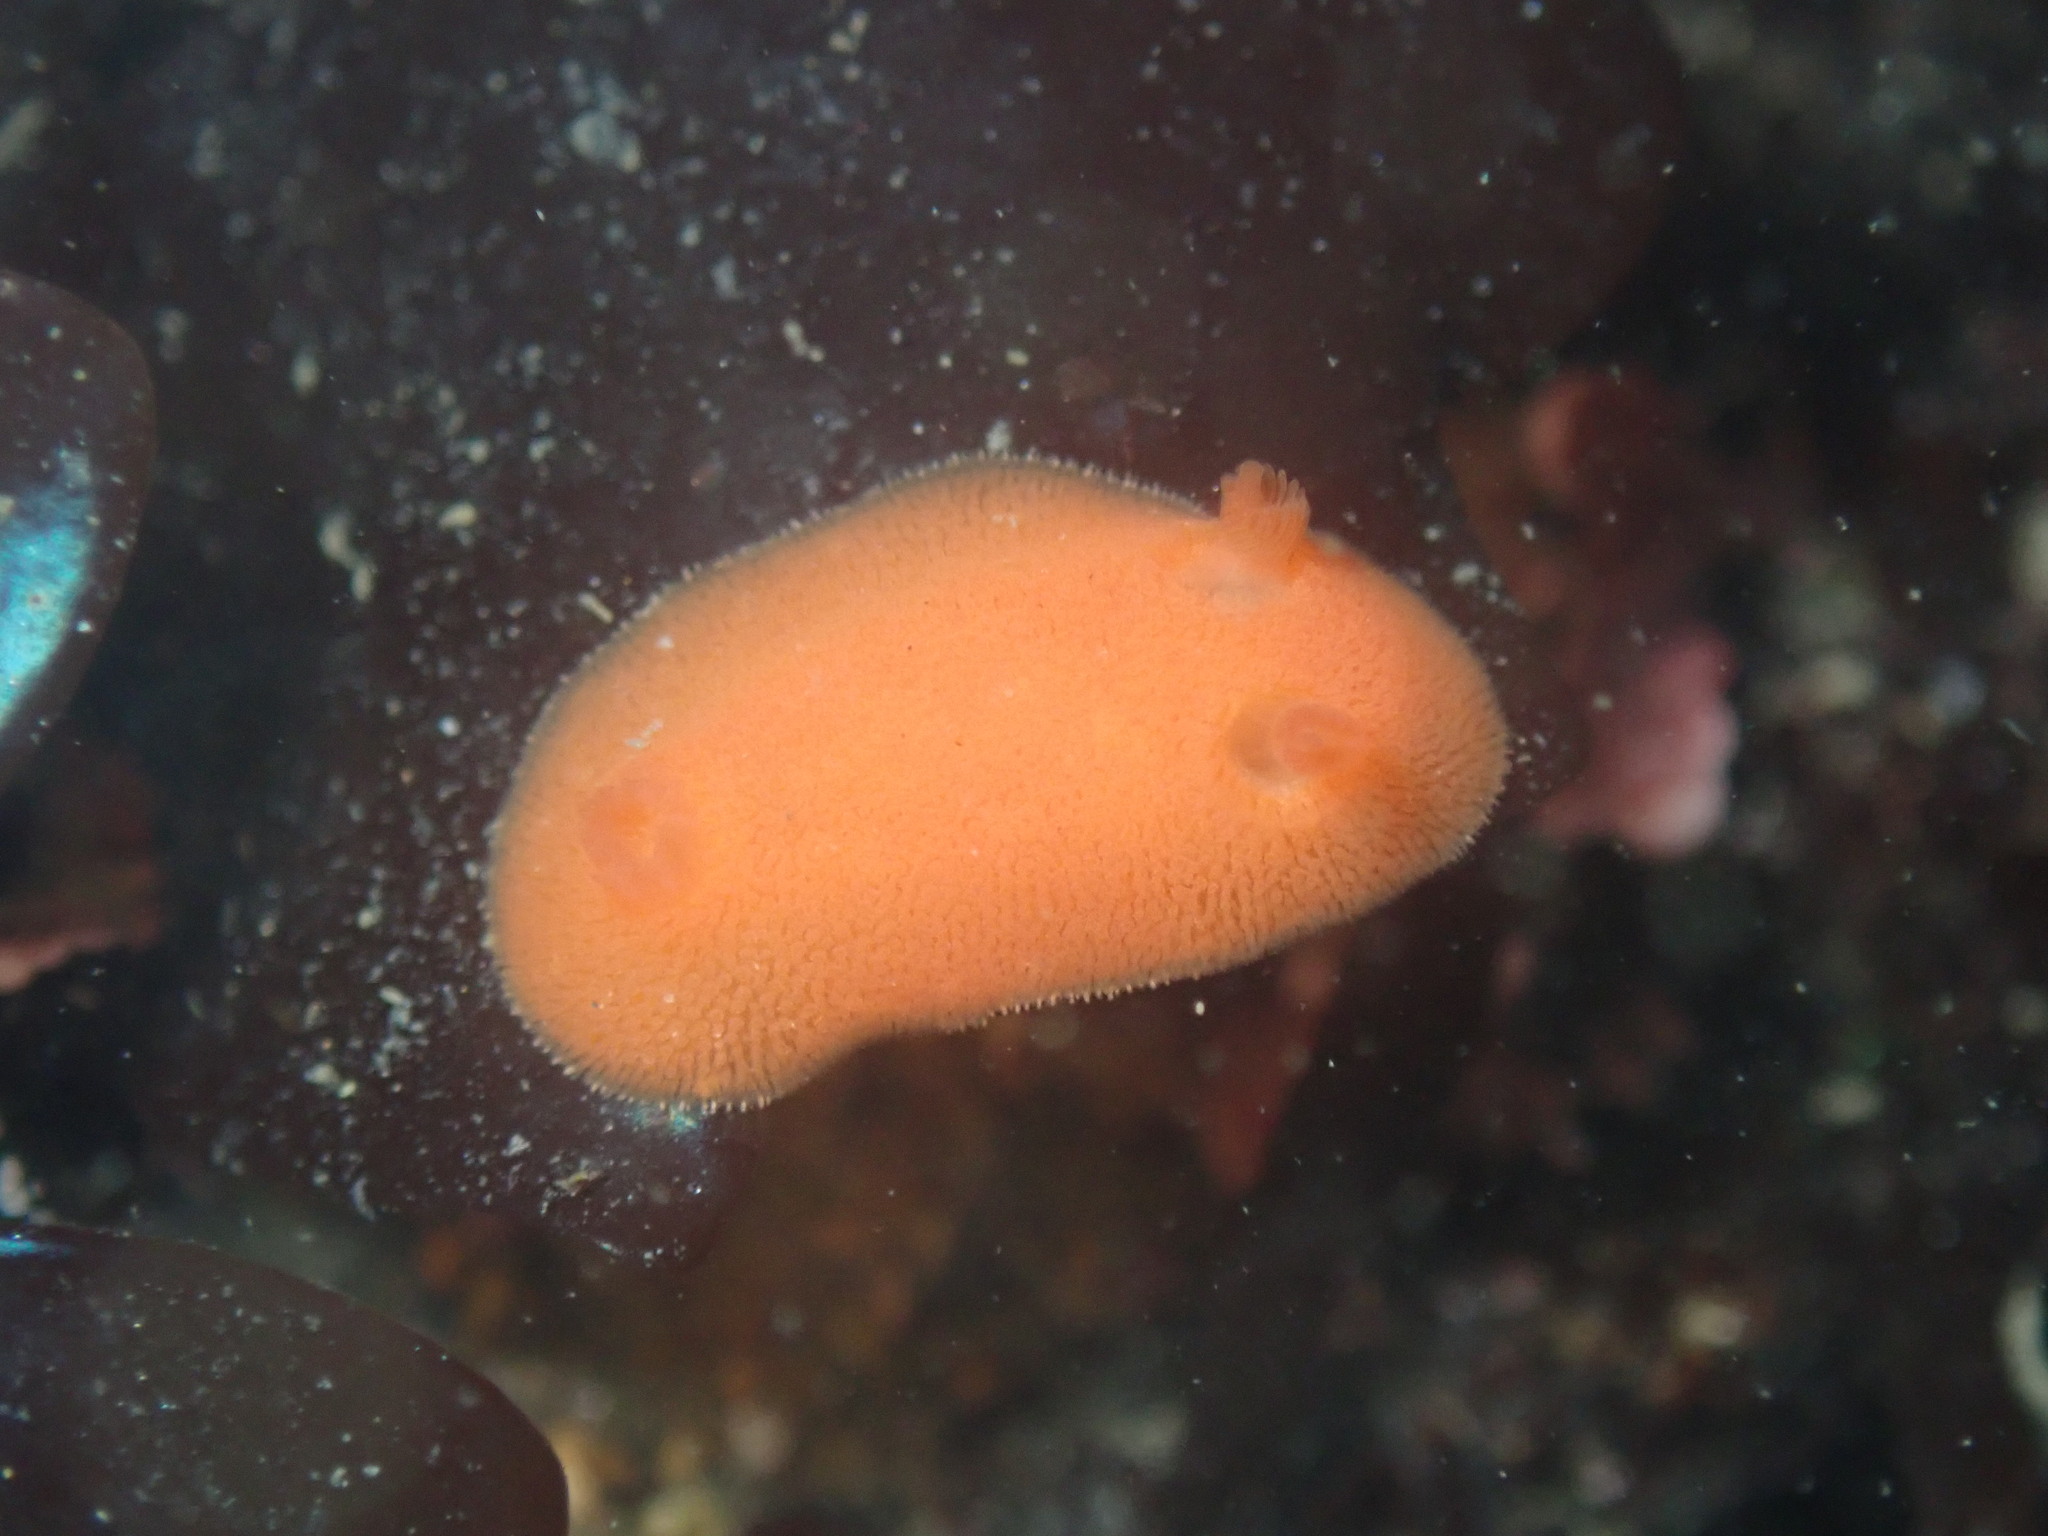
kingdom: Animalia
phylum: Mollusca
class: Gastropoda
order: Nudibranchia
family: Discodorididae
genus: Rostanga
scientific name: Rostanga pulchra
